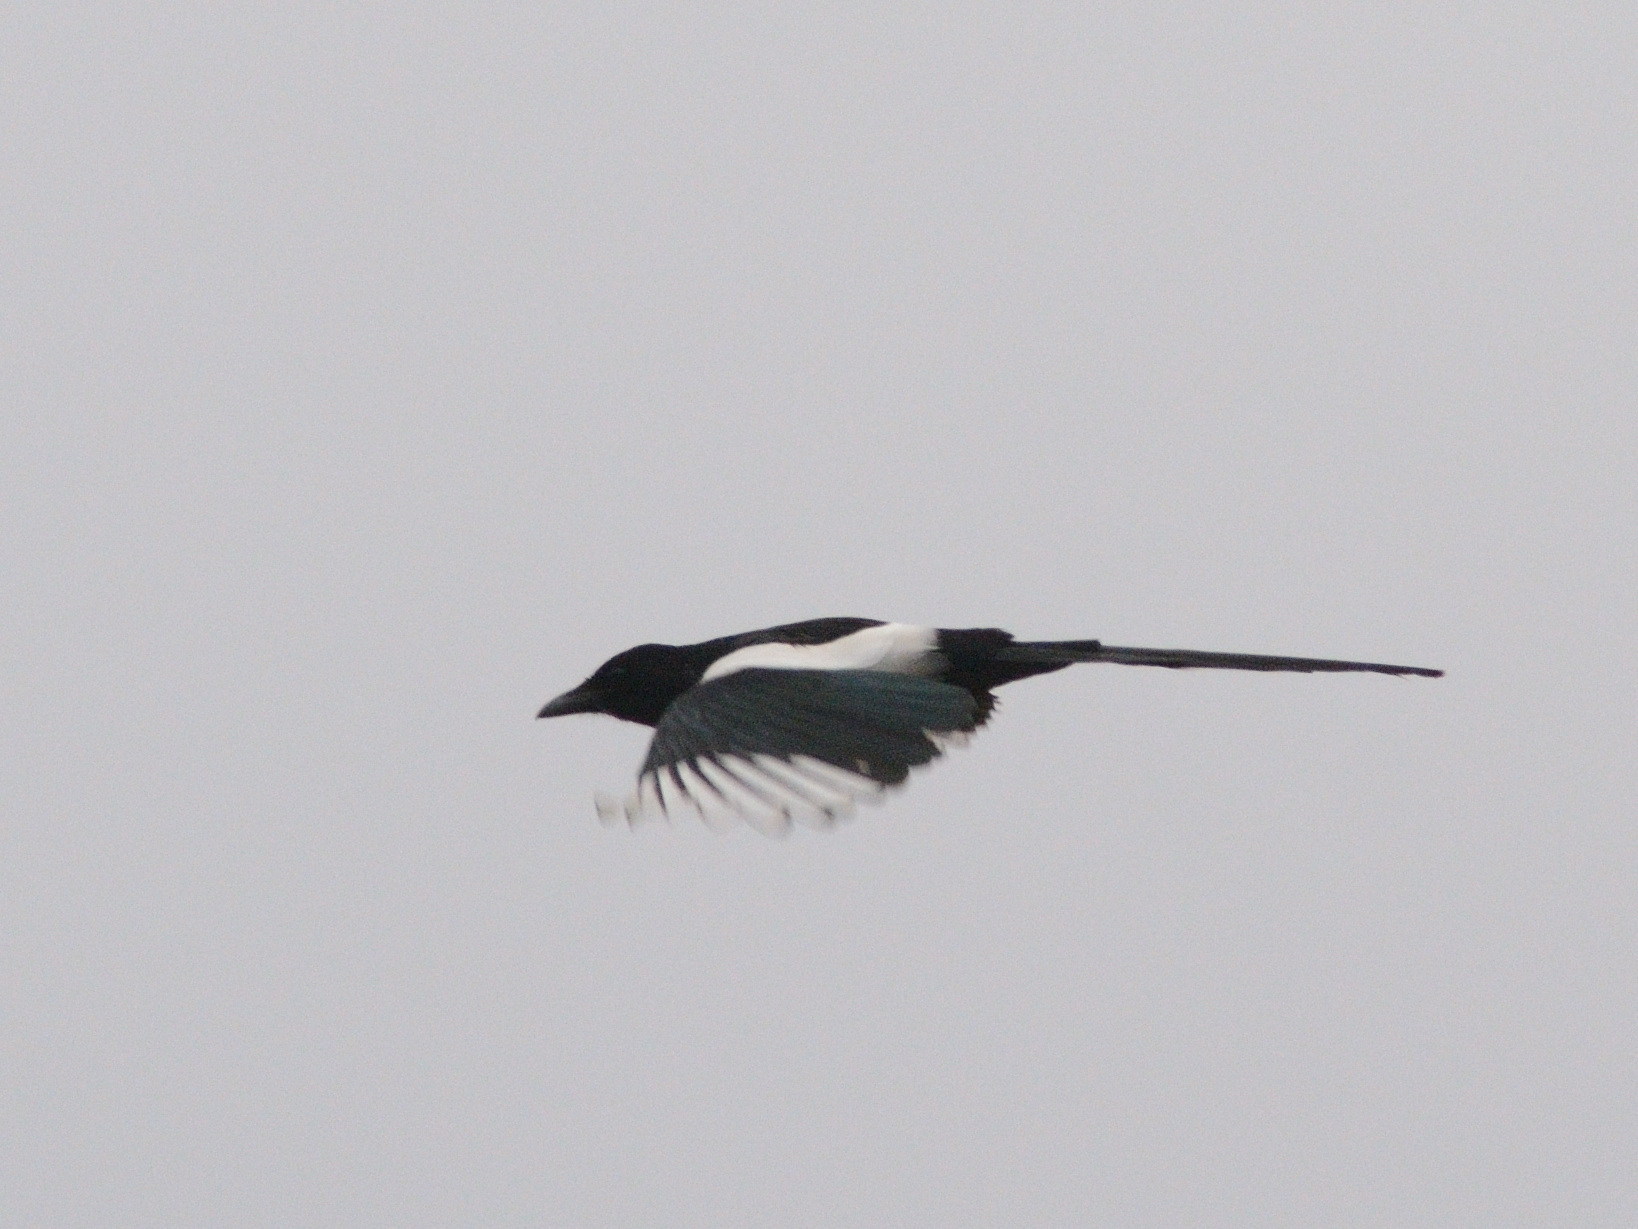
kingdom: Animalia
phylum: Chordata
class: Aves
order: Passeriformes
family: Corvidae
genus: Pica
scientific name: Pica pica
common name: Eurasian magpie
